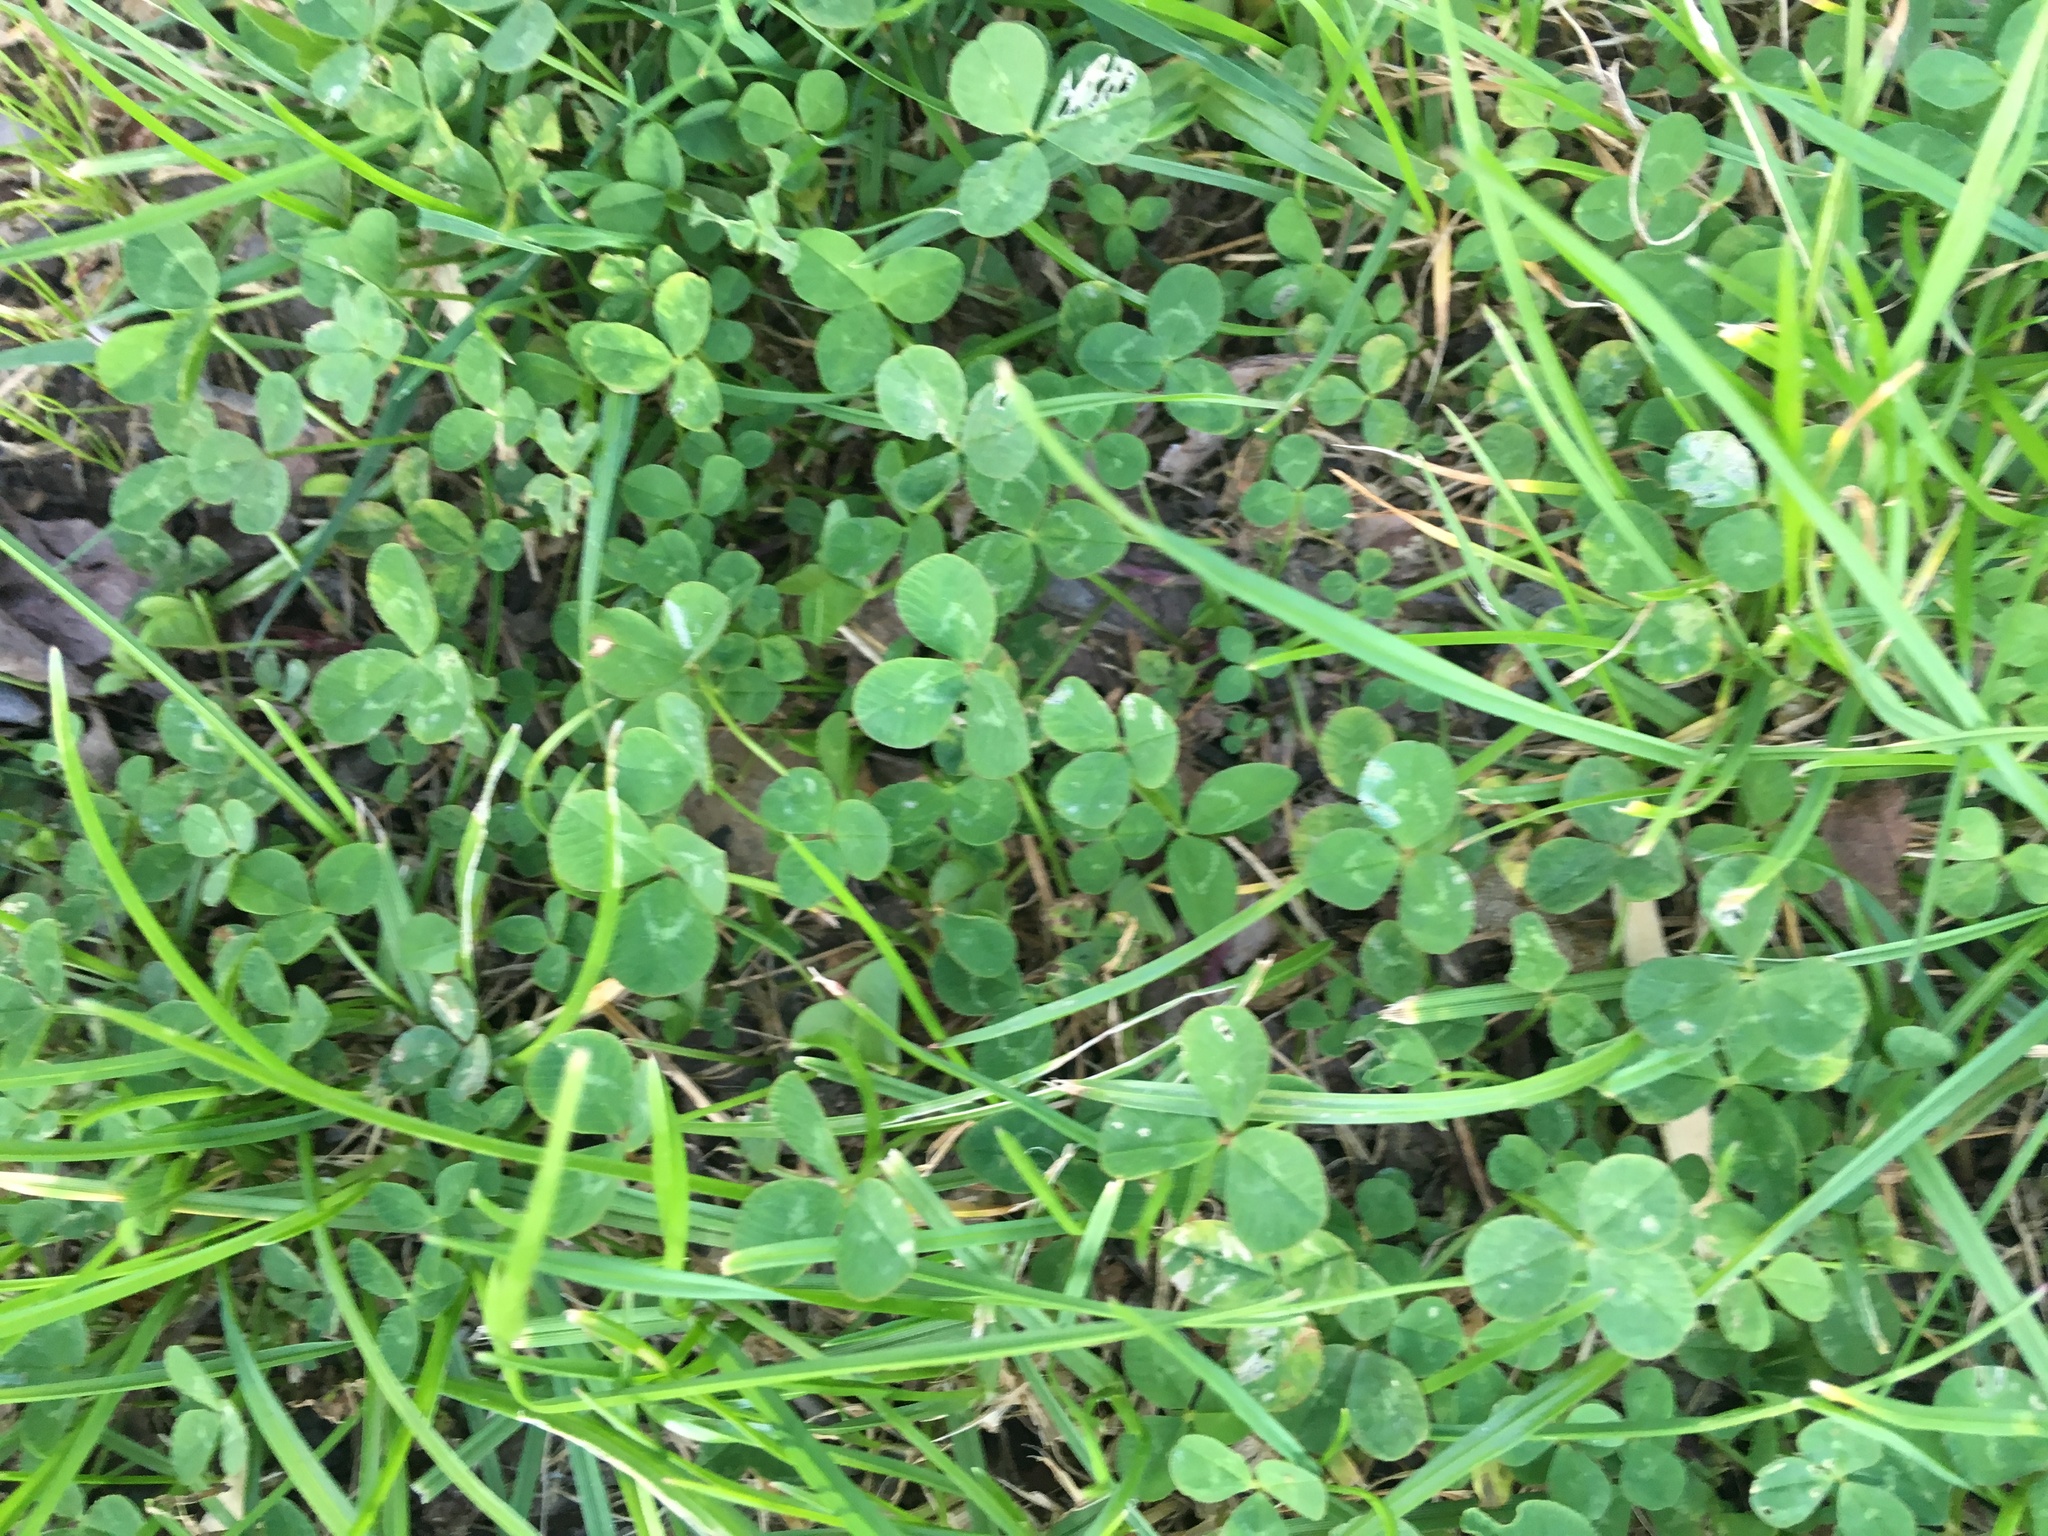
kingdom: Plantae
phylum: Tracheophyta
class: Magnoliopsida
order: Fabales
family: Fabaceae
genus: Trifolium
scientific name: Trifolium repens
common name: White clover
